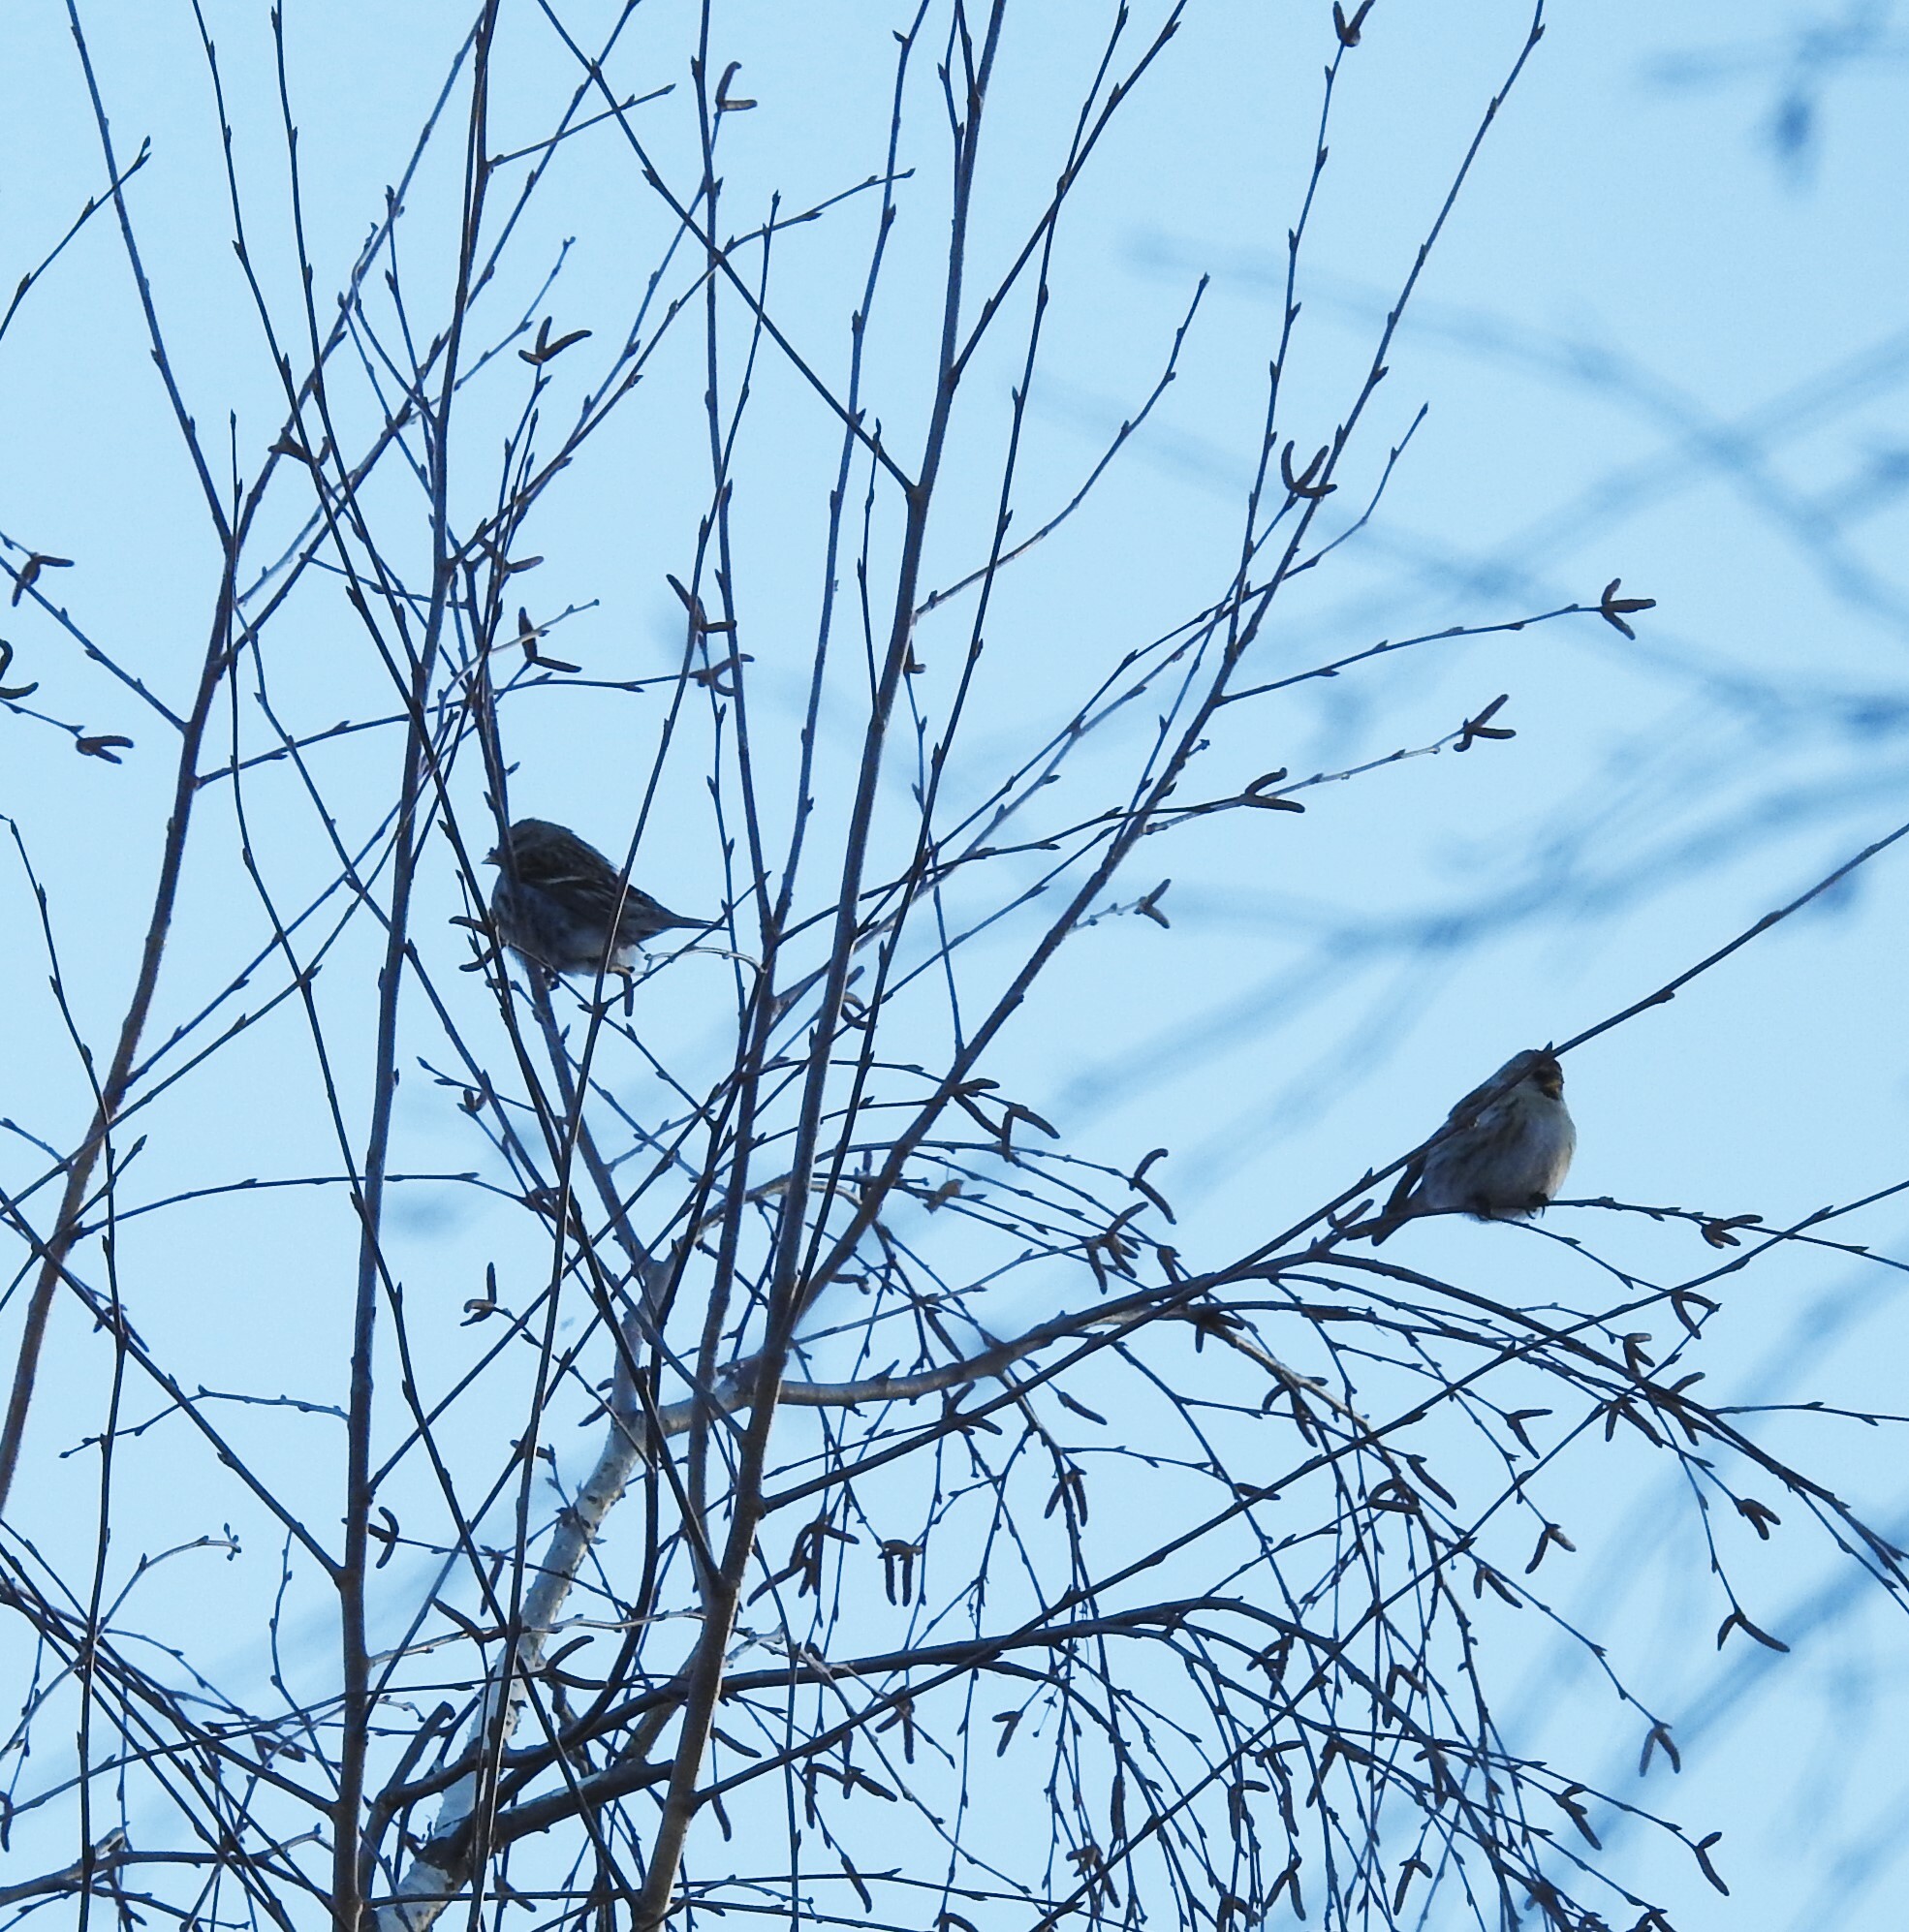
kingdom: Animalia
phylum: Chordata
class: Aves
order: Passeriformes
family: Fringillidae
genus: Acanthis
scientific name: Acanthis flammea
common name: Common redpoll
